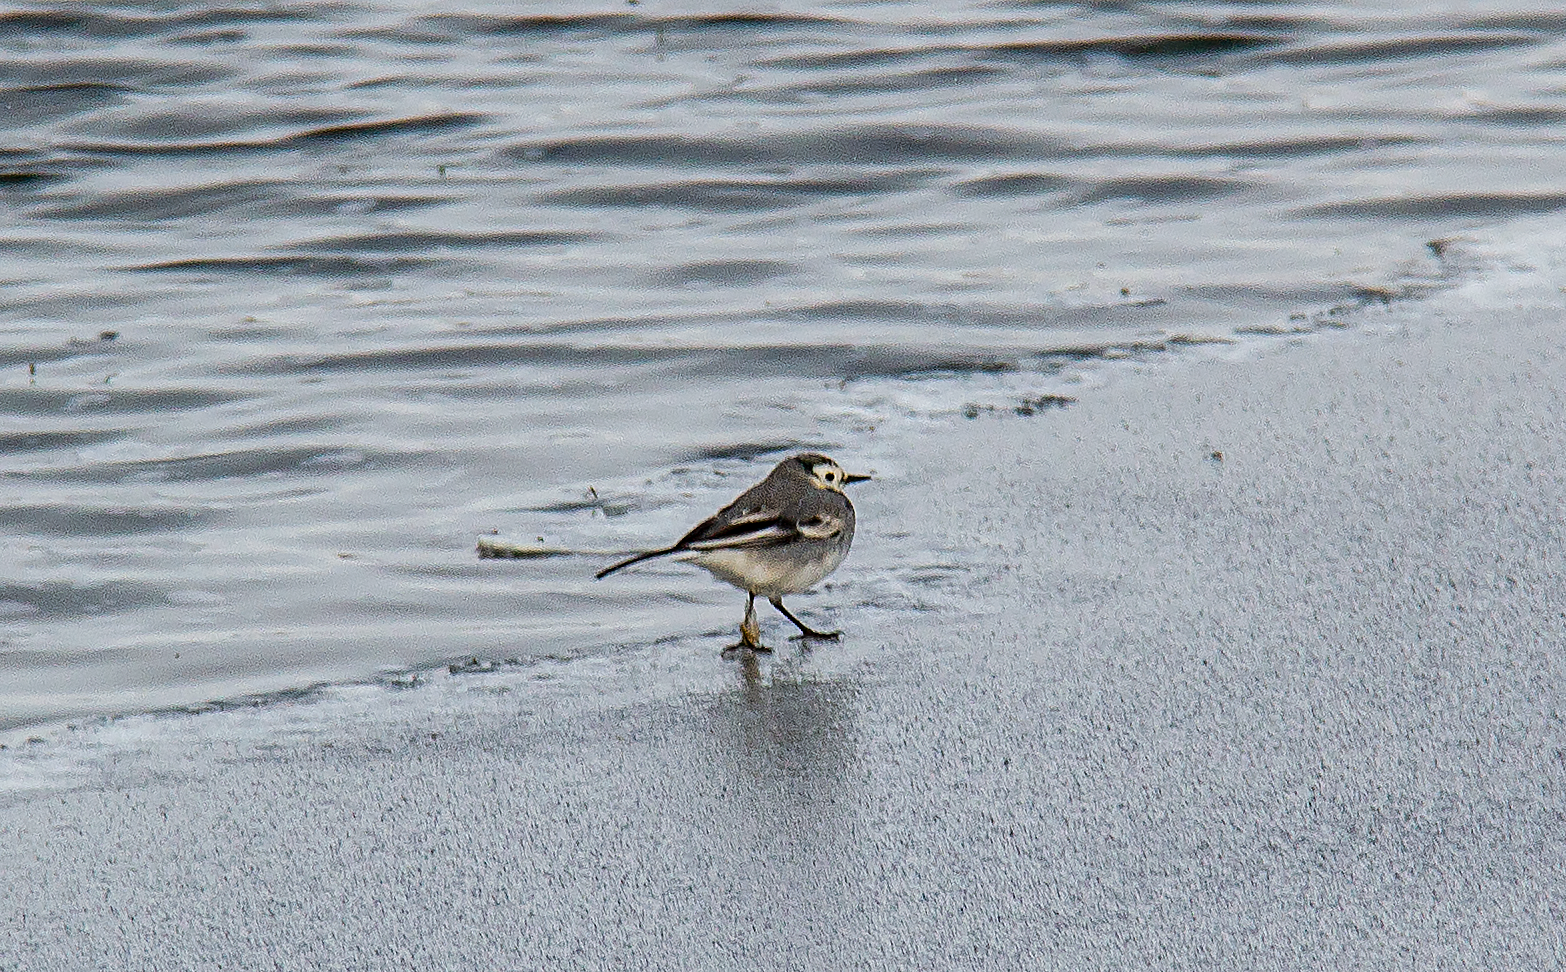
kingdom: Animalia
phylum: Chordata
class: Aves
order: Passeriformes
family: Motacillidae
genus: Motacilla
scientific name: Motacilla alba
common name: White wagtail
